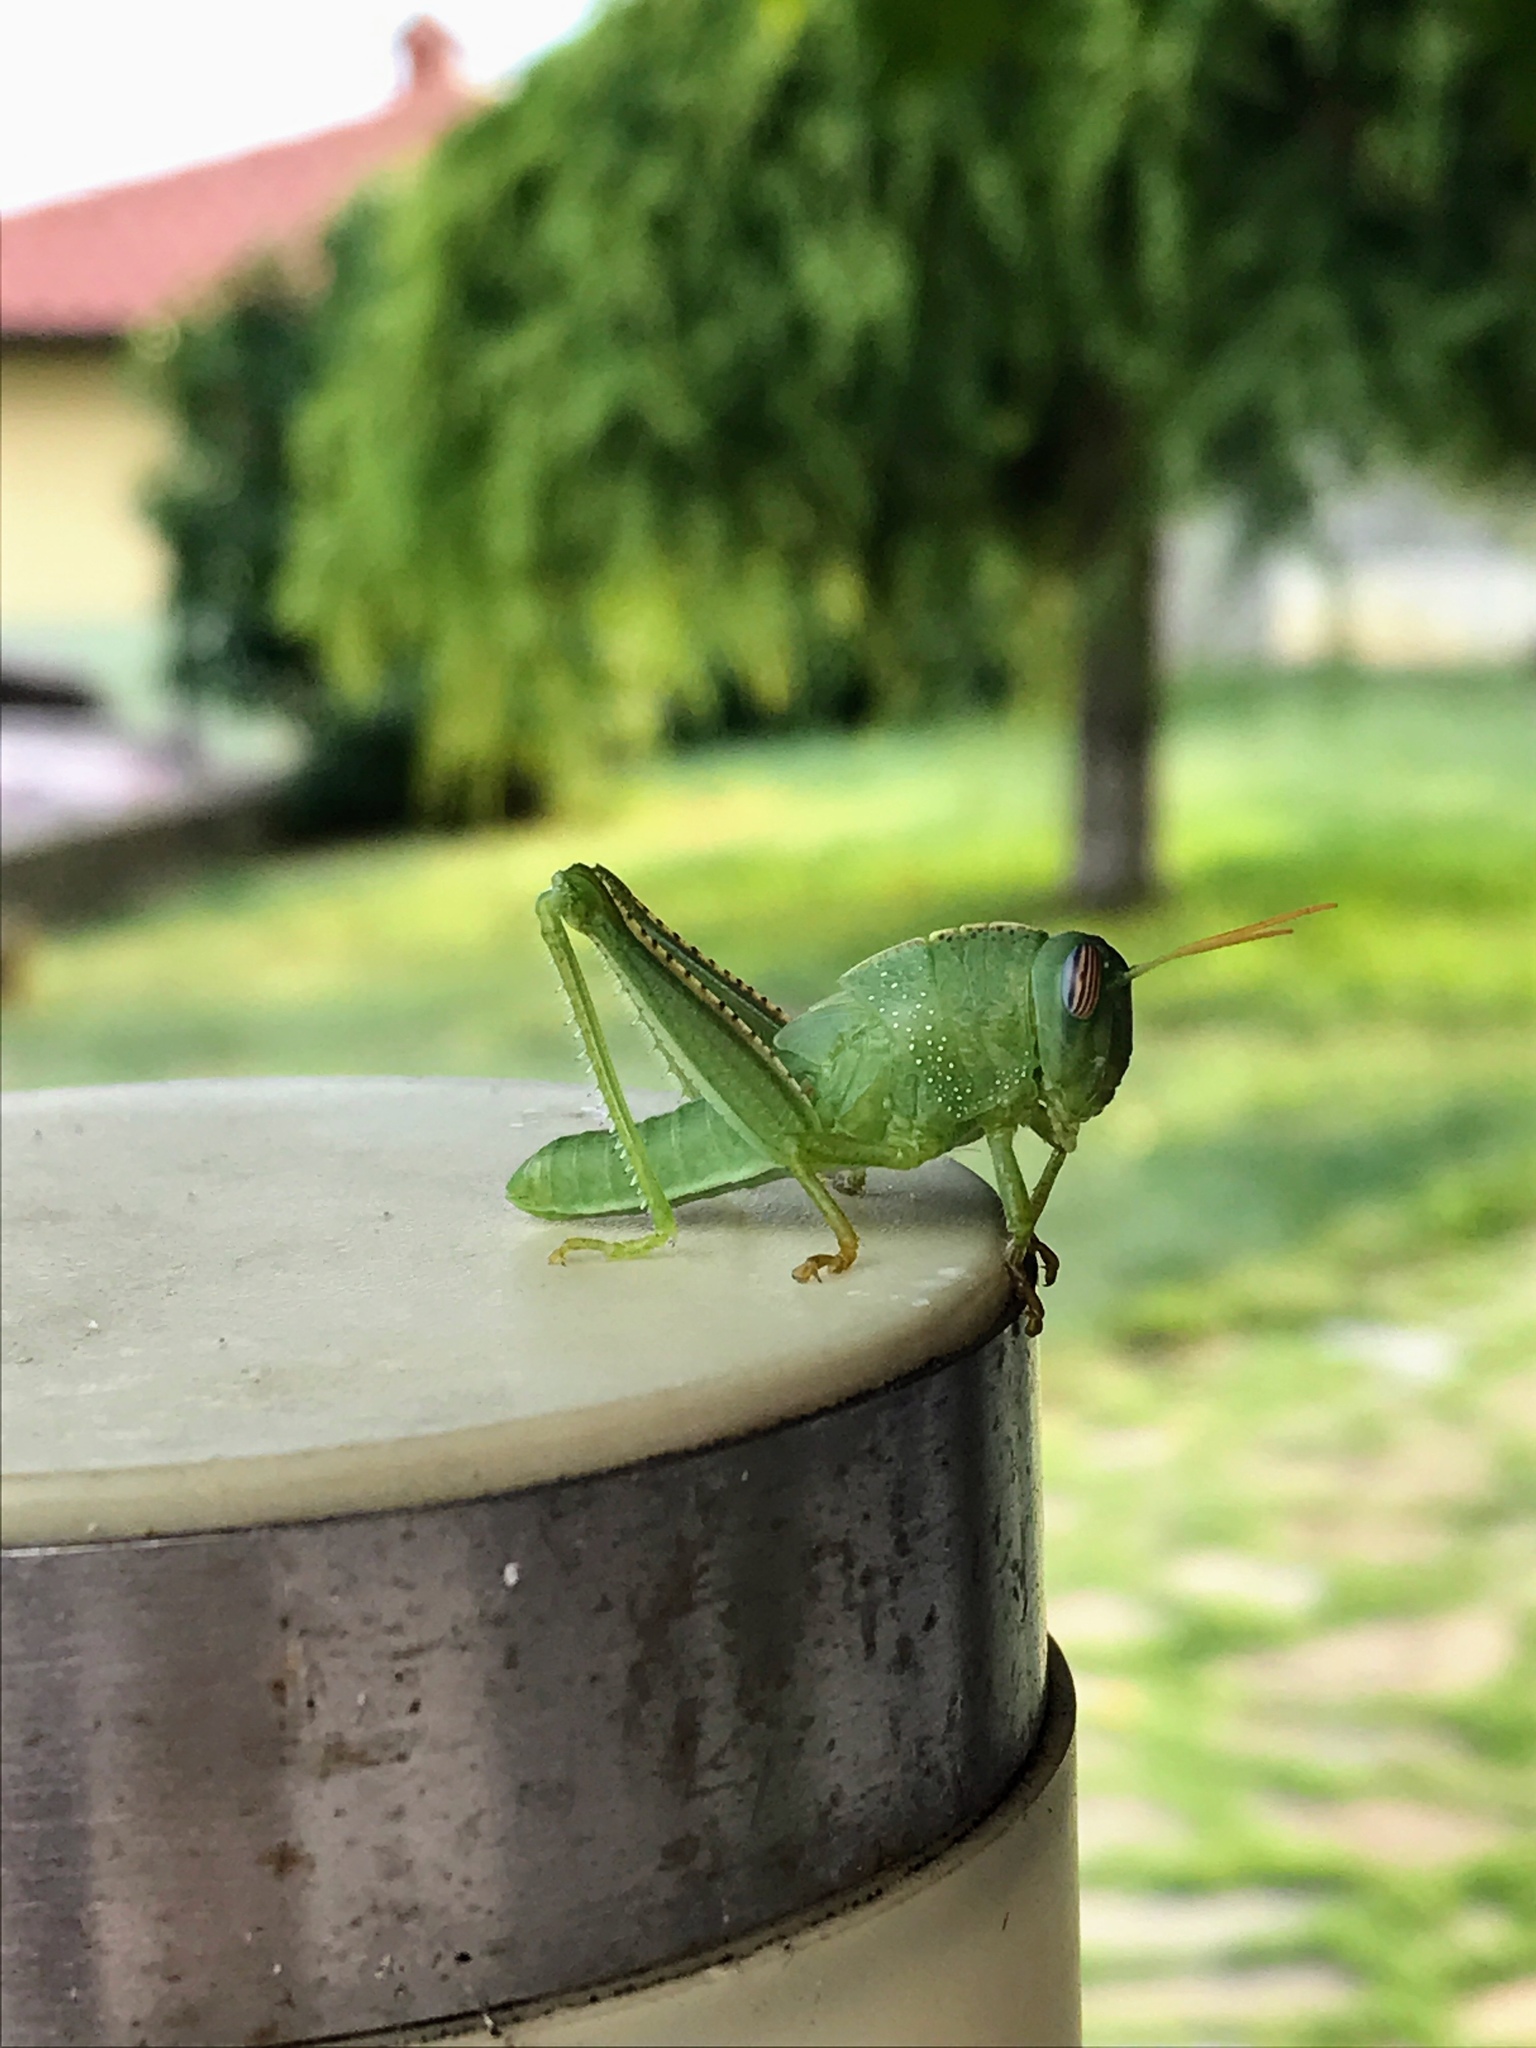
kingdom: Animalia
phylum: Arthropoda
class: Insecta
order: Orthoptera
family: Acrididae
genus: Anacridium
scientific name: Anacridium aegyptium
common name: Egyptian grasshopper
